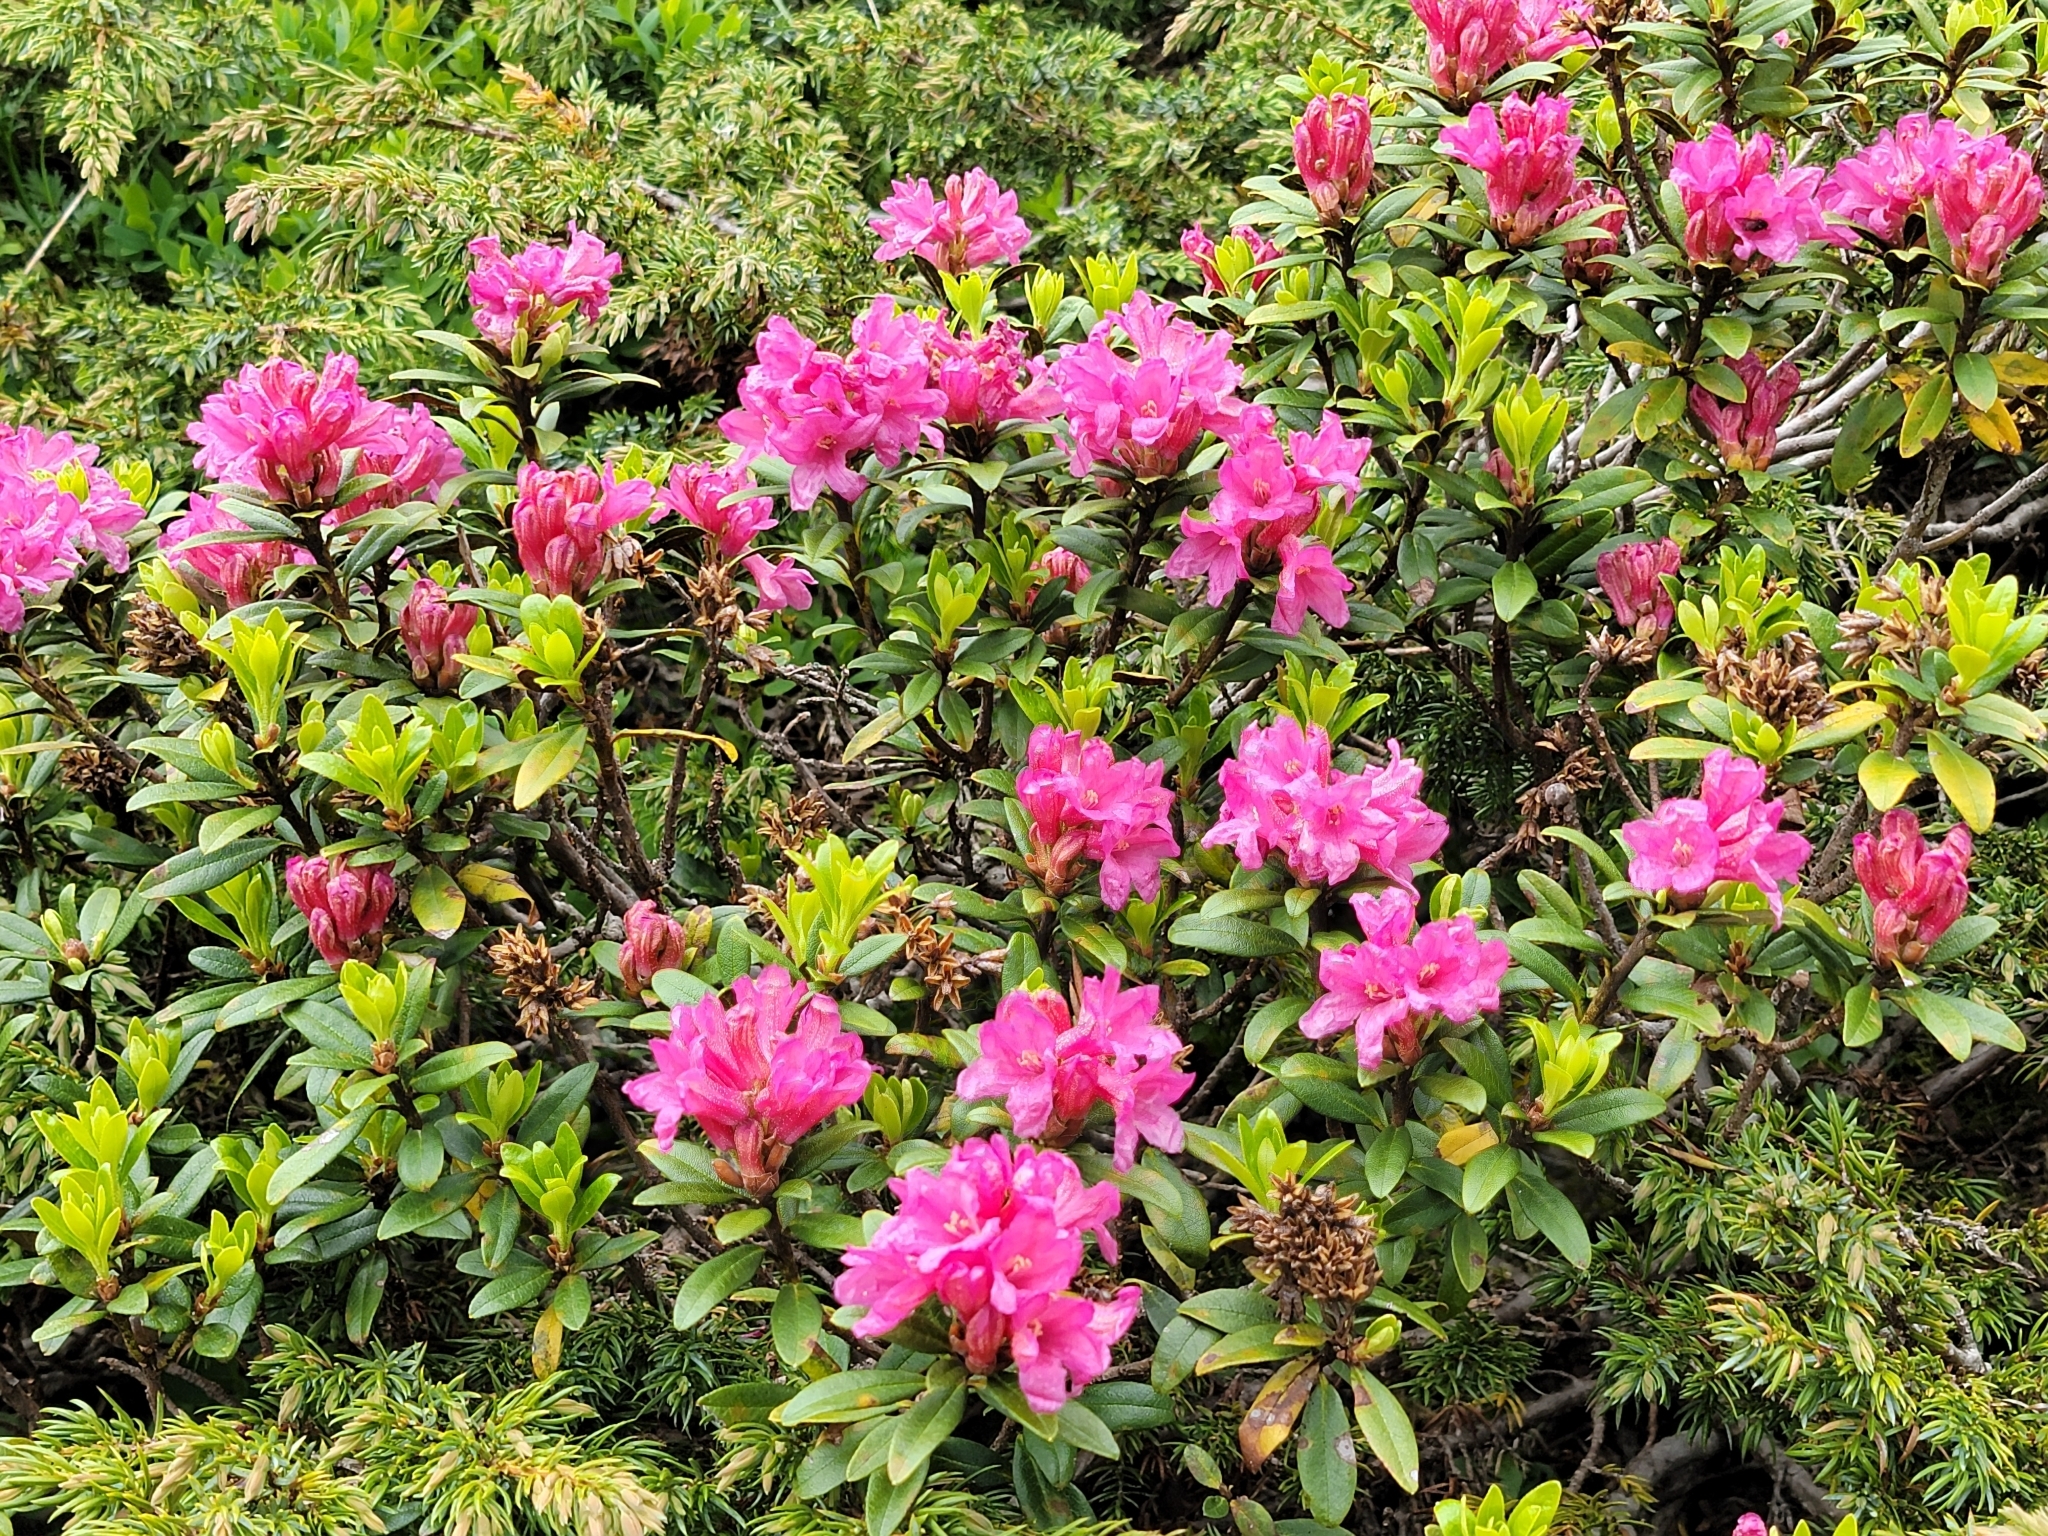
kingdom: Plantae
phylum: Tracheophyta
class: Magnoliopsida
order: Ericales
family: Ericaceae
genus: Rhododendron
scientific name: Rhododendron ferrugineum
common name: Alpenrose
